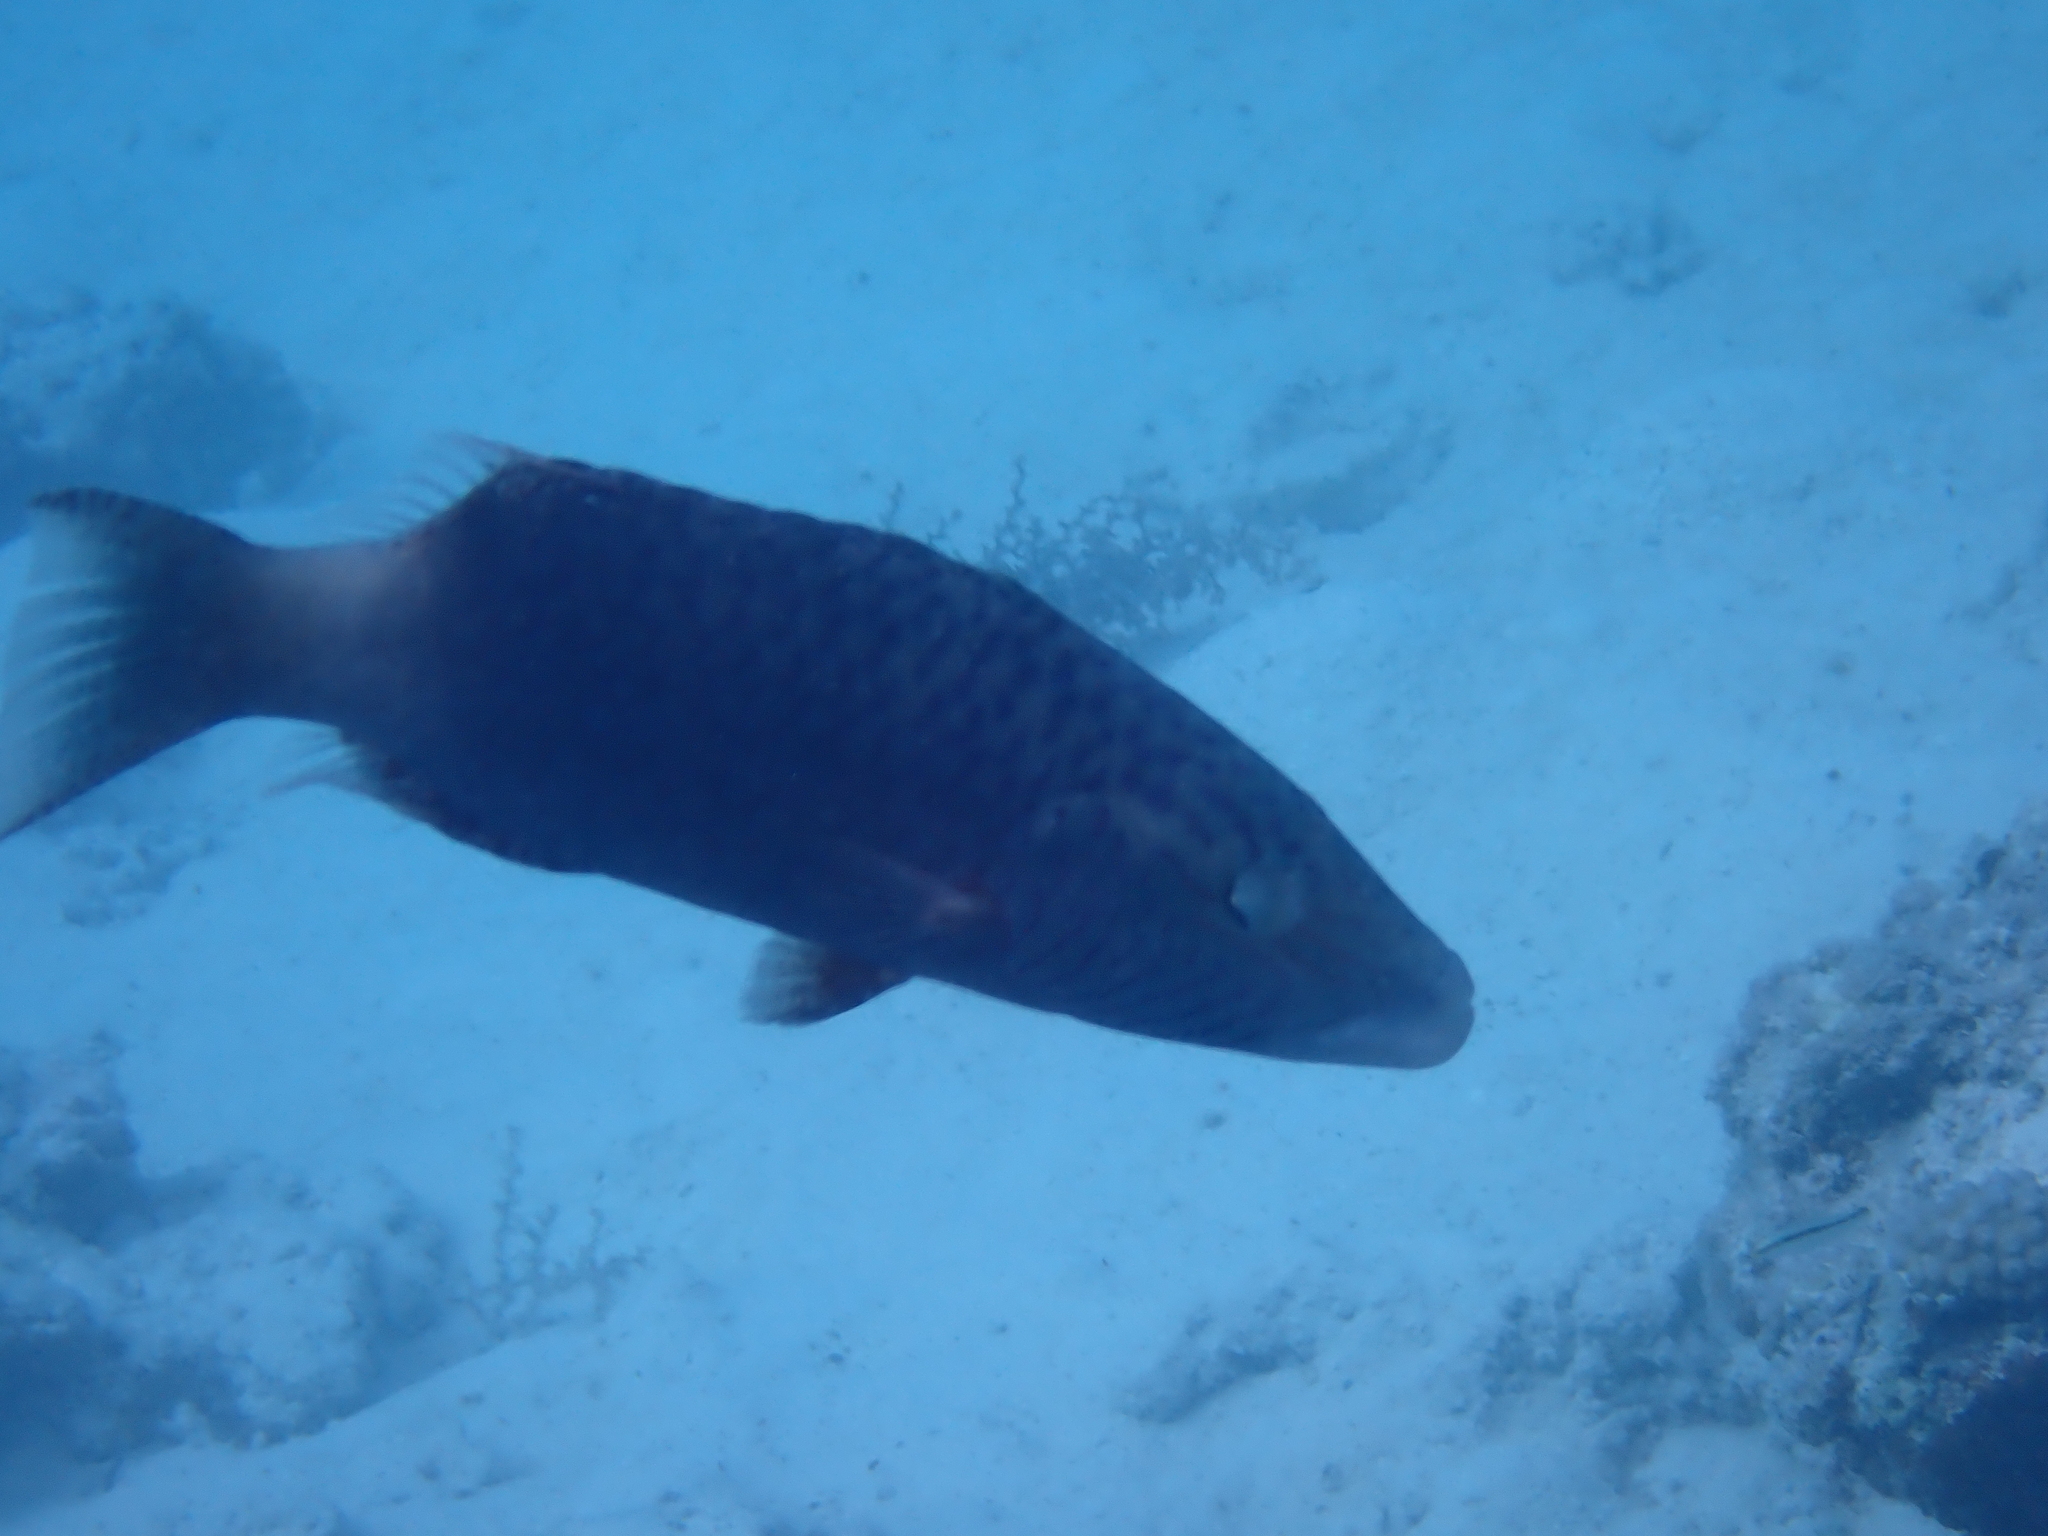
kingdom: Animalia
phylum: Chordata
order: Perciformes
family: Labridae
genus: Oxycheilinus
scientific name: Oxycheilinus digramma
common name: Bandcheek wrasse
